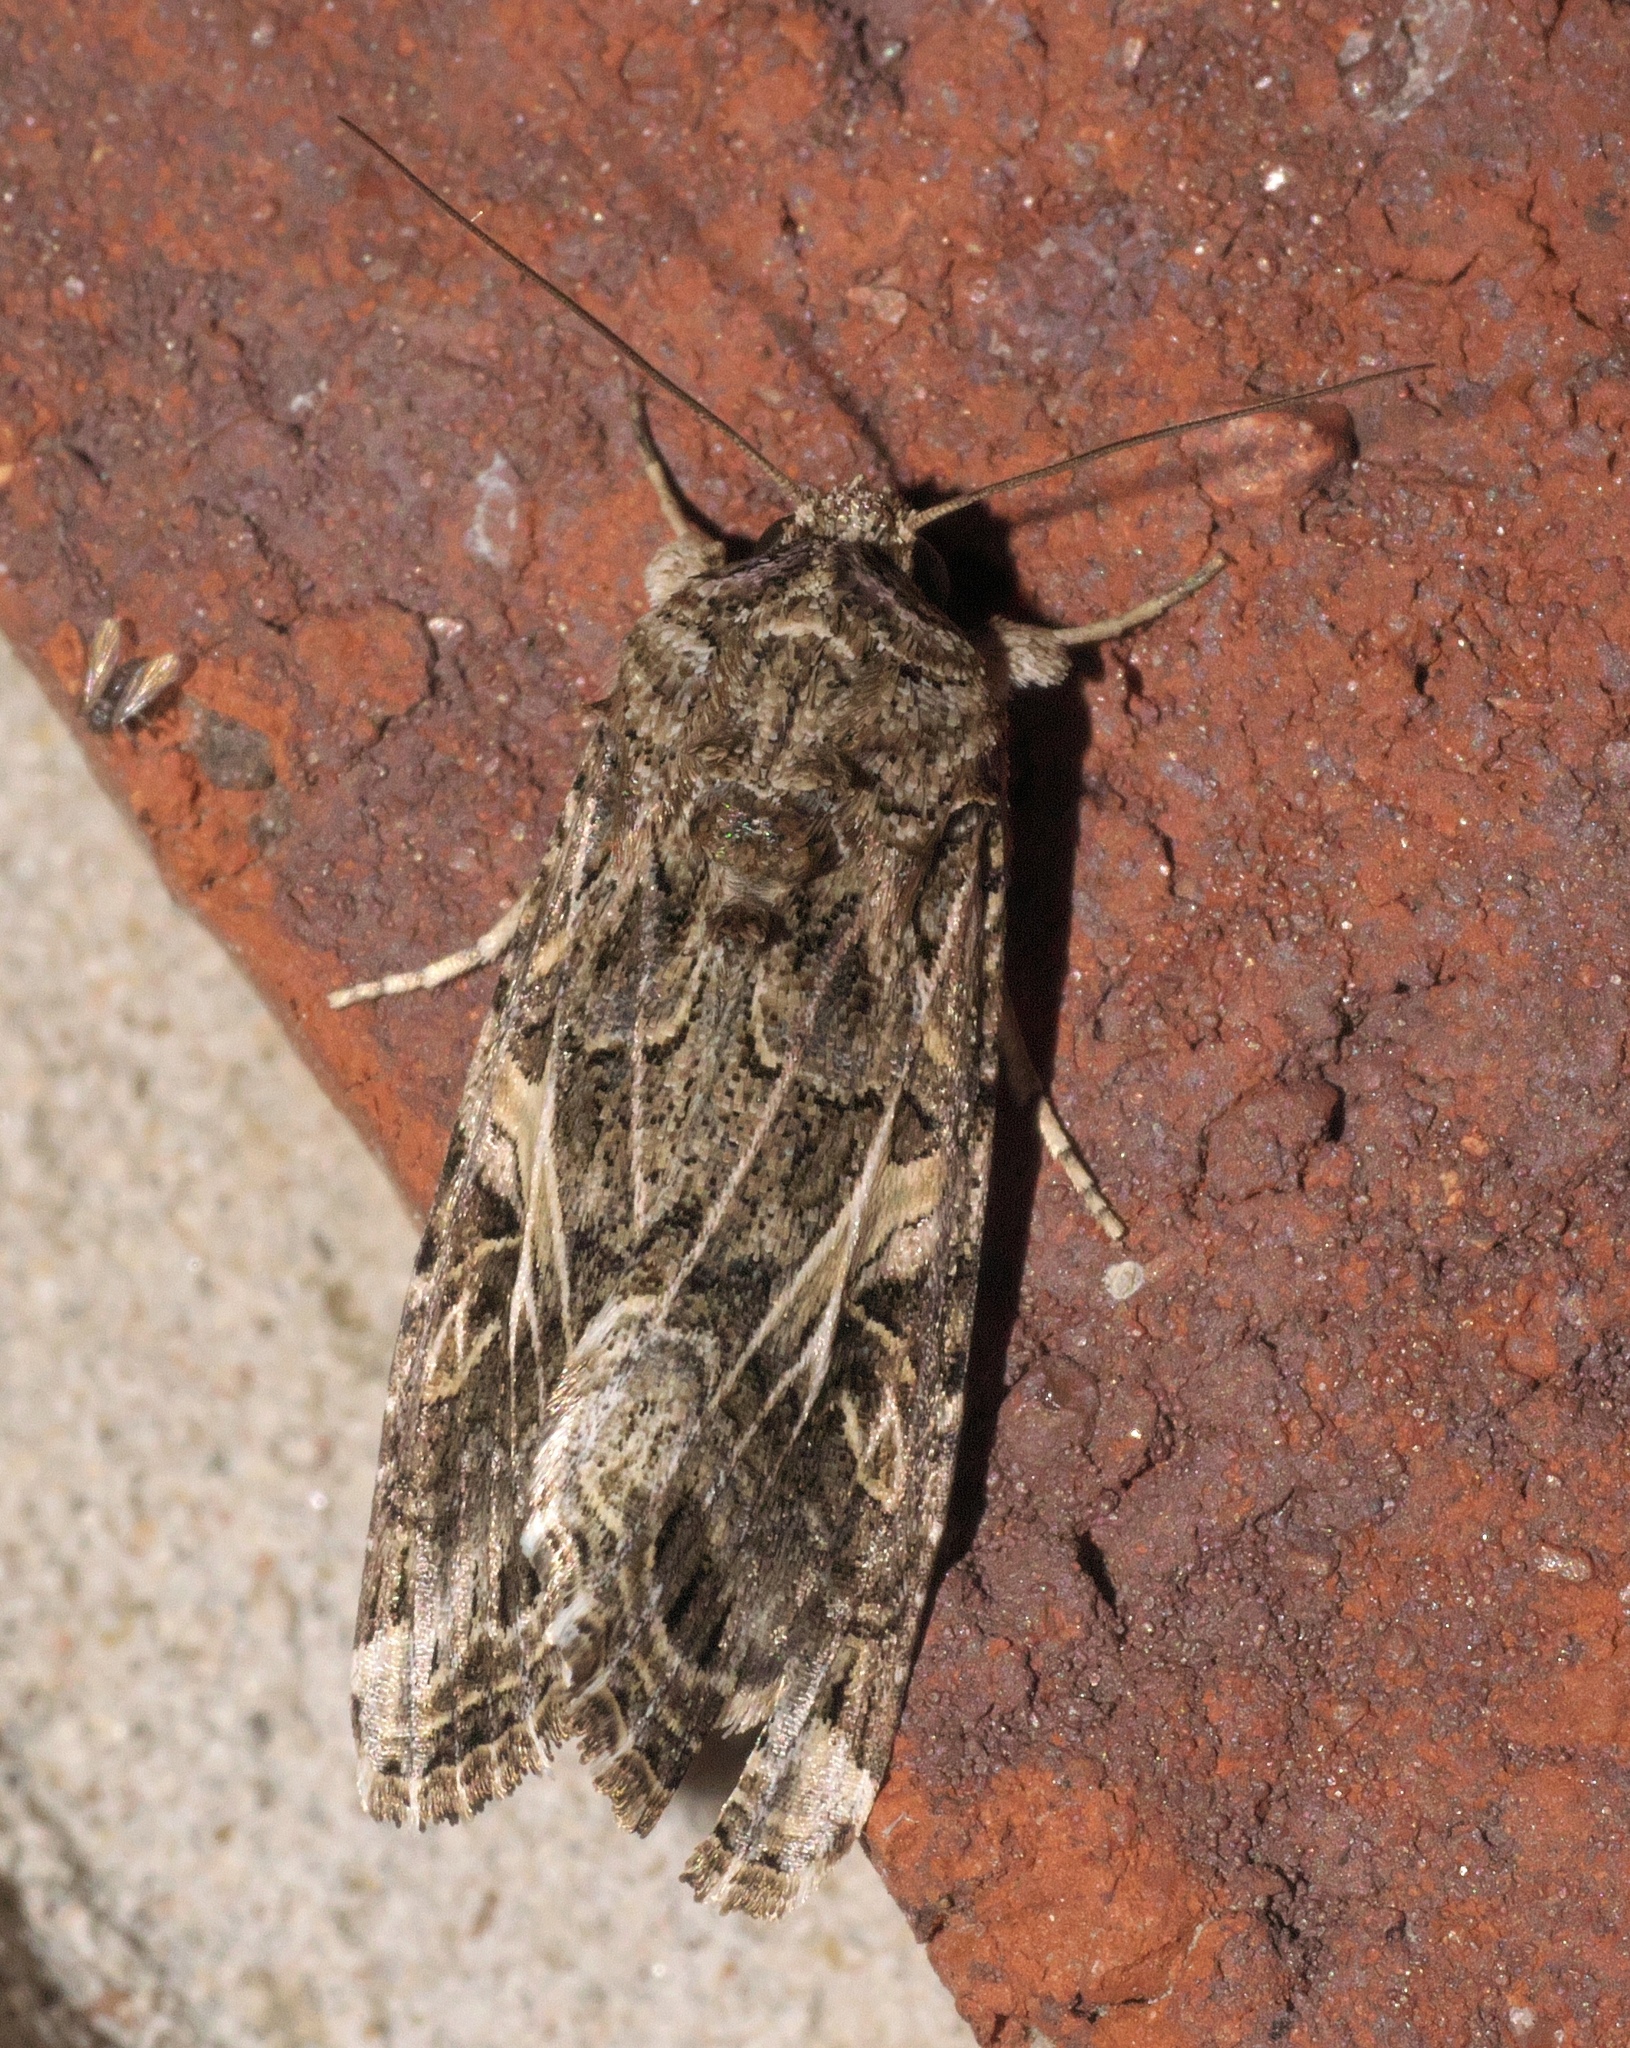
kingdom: Animalia
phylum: Arthropoda
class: Insecta
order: Lepidoptera
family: Noctuidae
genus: Spodoptera
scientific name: Spodoptera ornithogalli
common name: Yellow-striped armyworm
